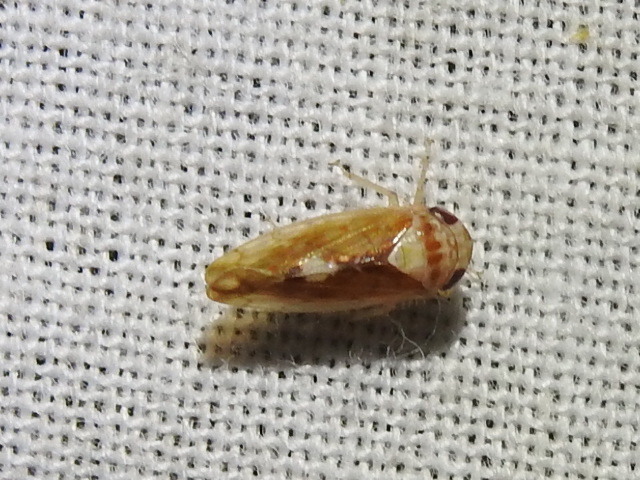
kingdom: Animalia
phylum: Arthropoda
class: Insecta
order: Hemiptera
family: Cicadellidae
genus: Eutettix
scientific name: Eutettix pictus
